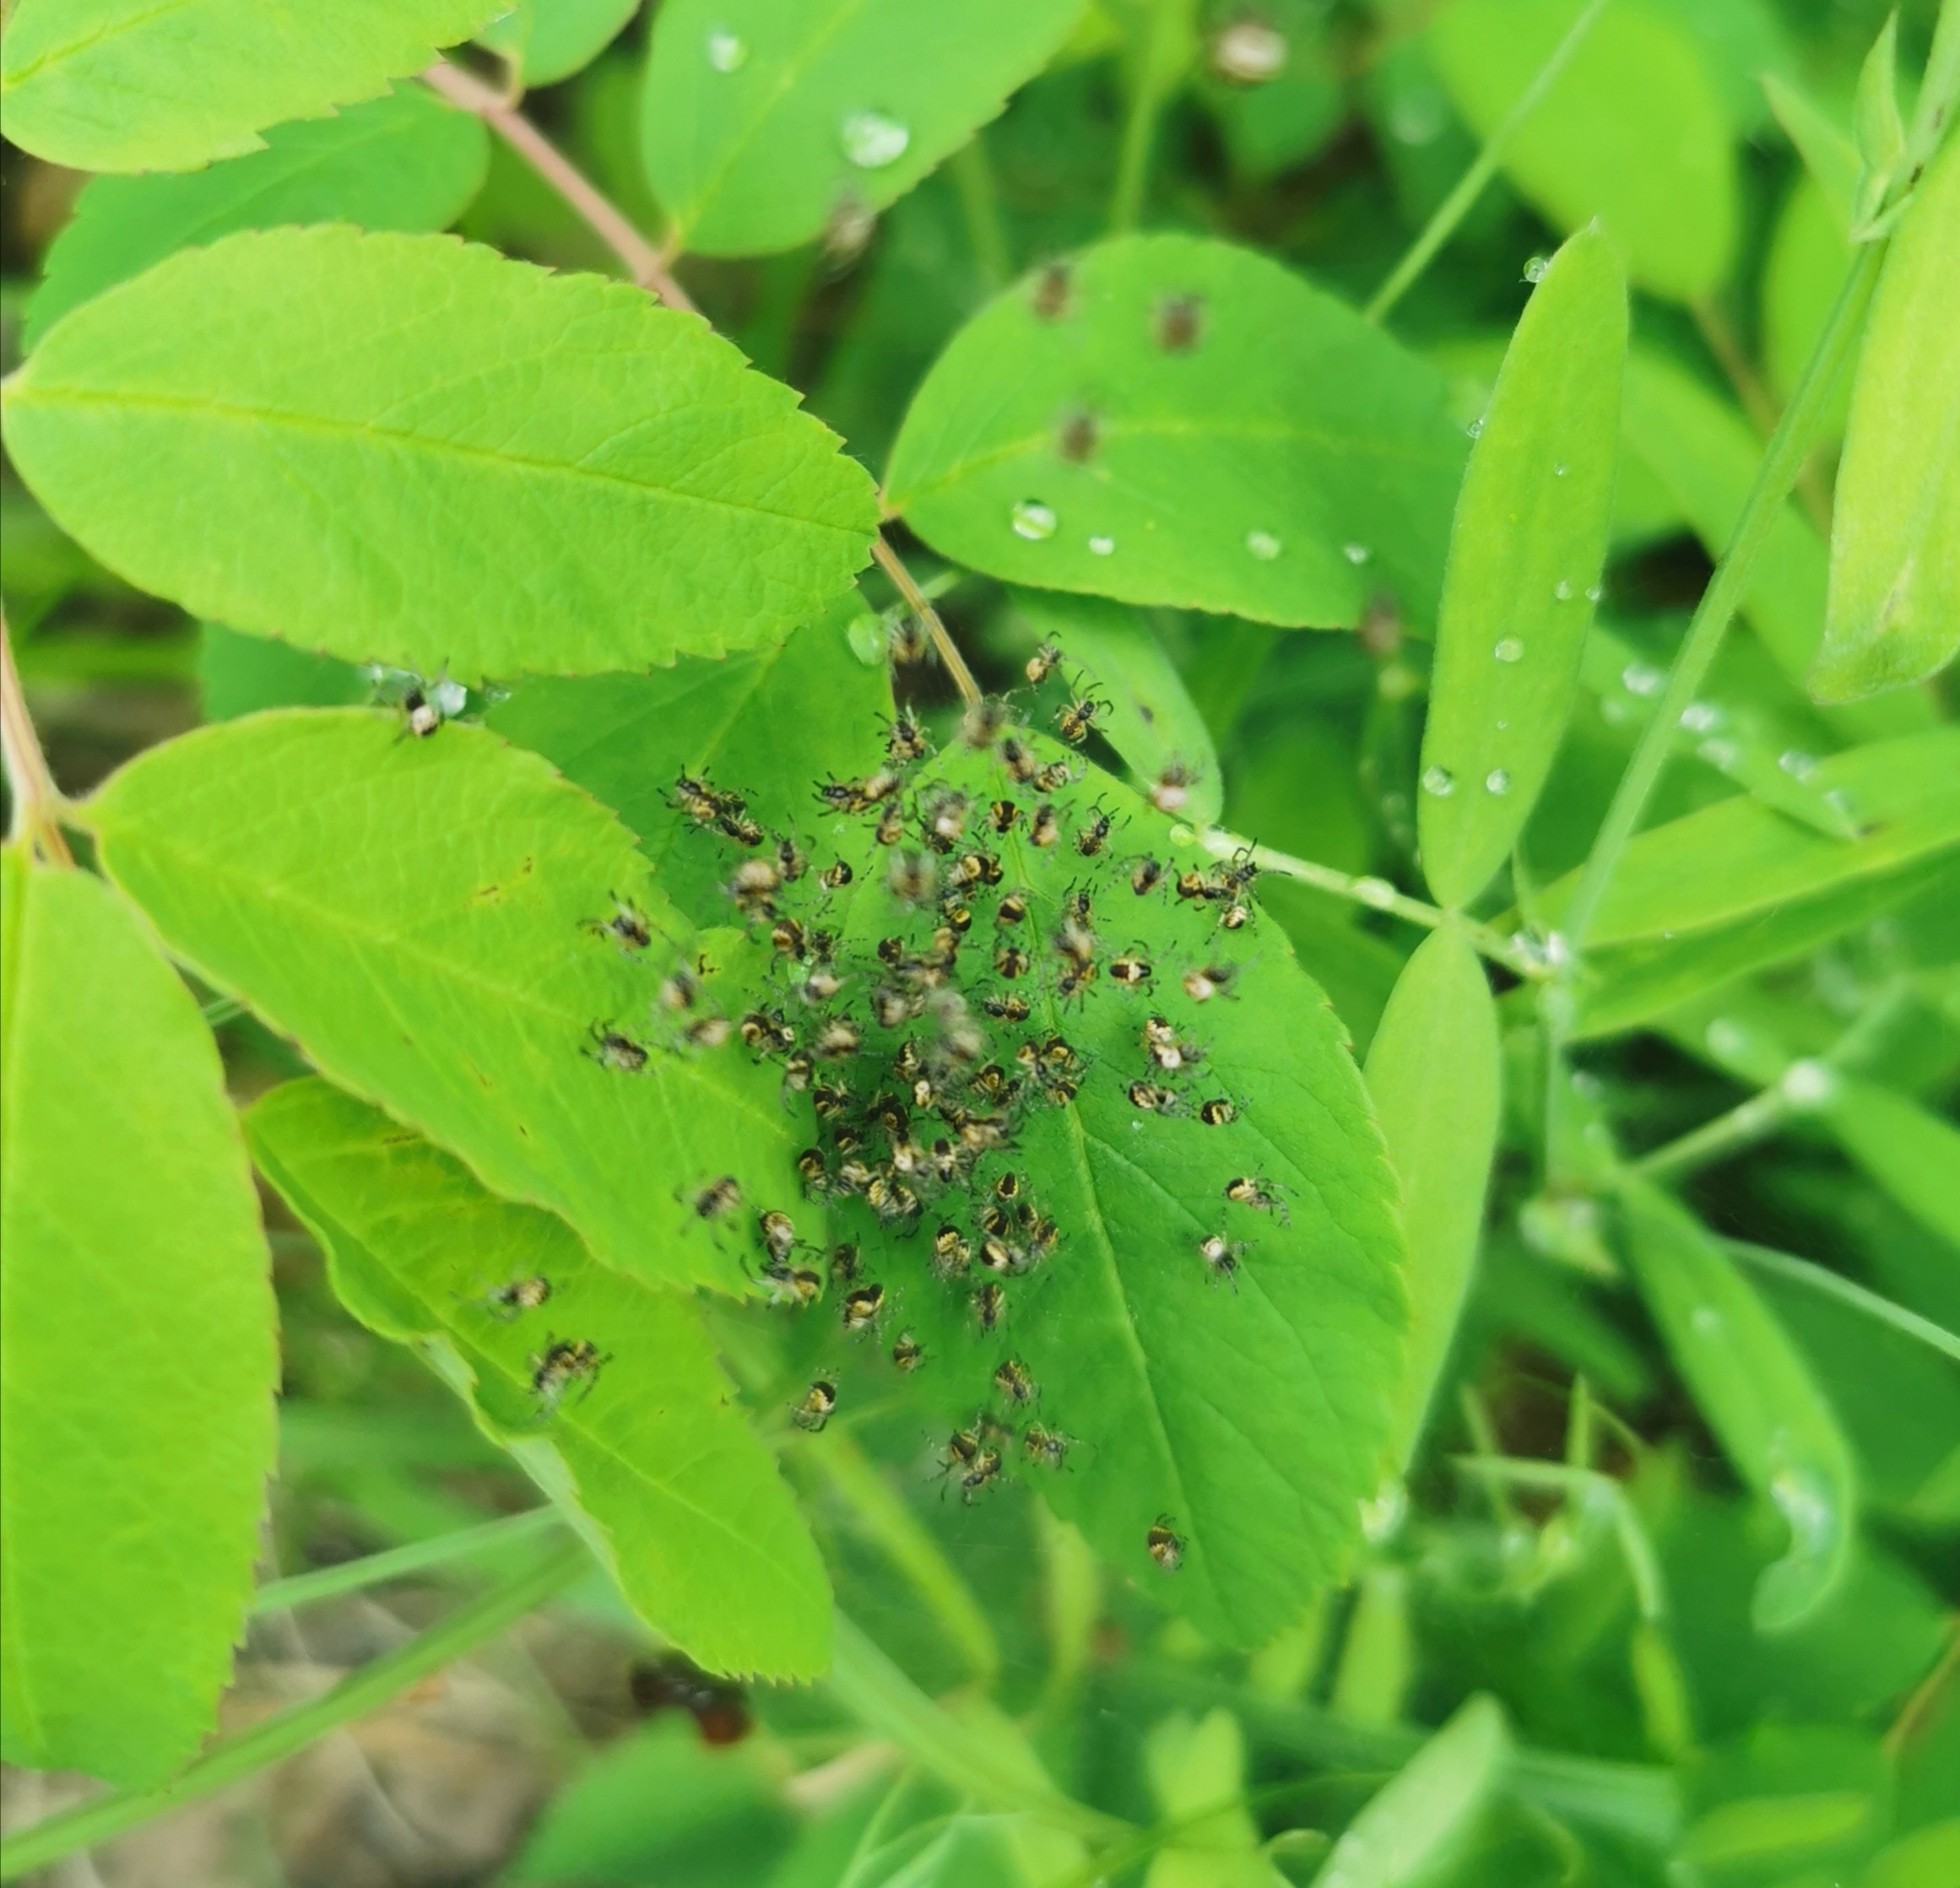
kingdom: Animalia
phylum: Arthropoda
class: Arachnida
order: Araneae
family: Araneidae
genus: Araneus
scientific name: Araneus diadematus
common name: Cross orbweaver
